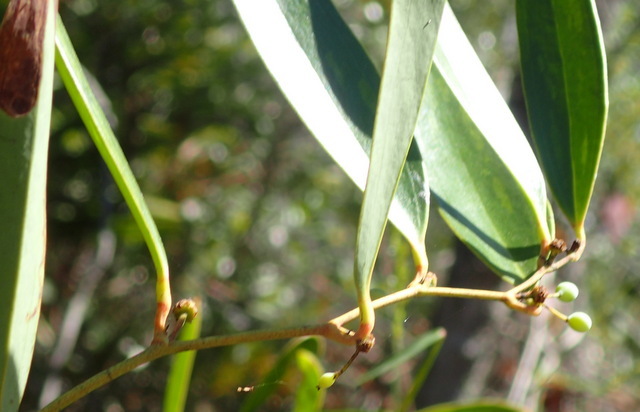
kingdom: Plantae
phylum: Tracheophyta
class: Liliopsida
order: Liliales
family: Smilacaceae
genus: Smilax
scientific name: Smilax laurifolia
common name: Bamboovine
